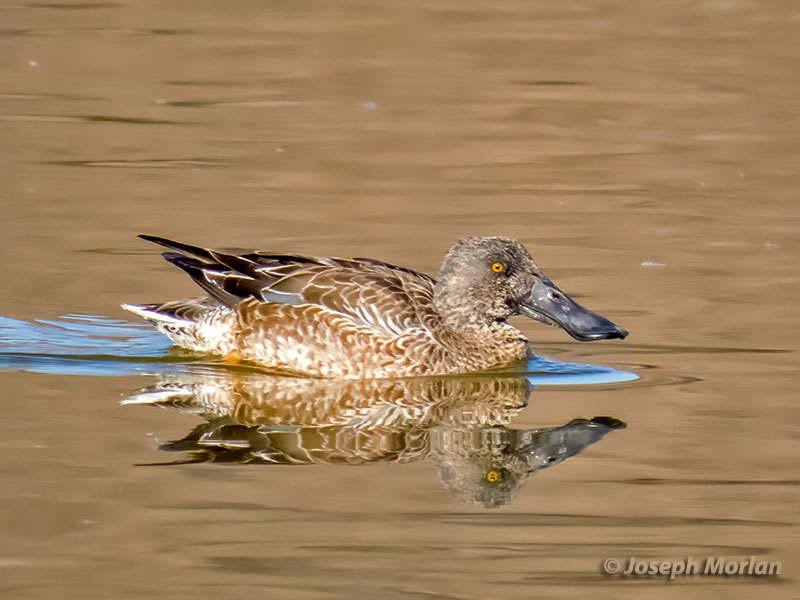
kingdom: Animalia
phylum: Chordata
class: Aves
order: Anseriformes
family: Anatidae
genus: Spatula
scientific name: Spatula clypeata
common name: Northern shoveler
